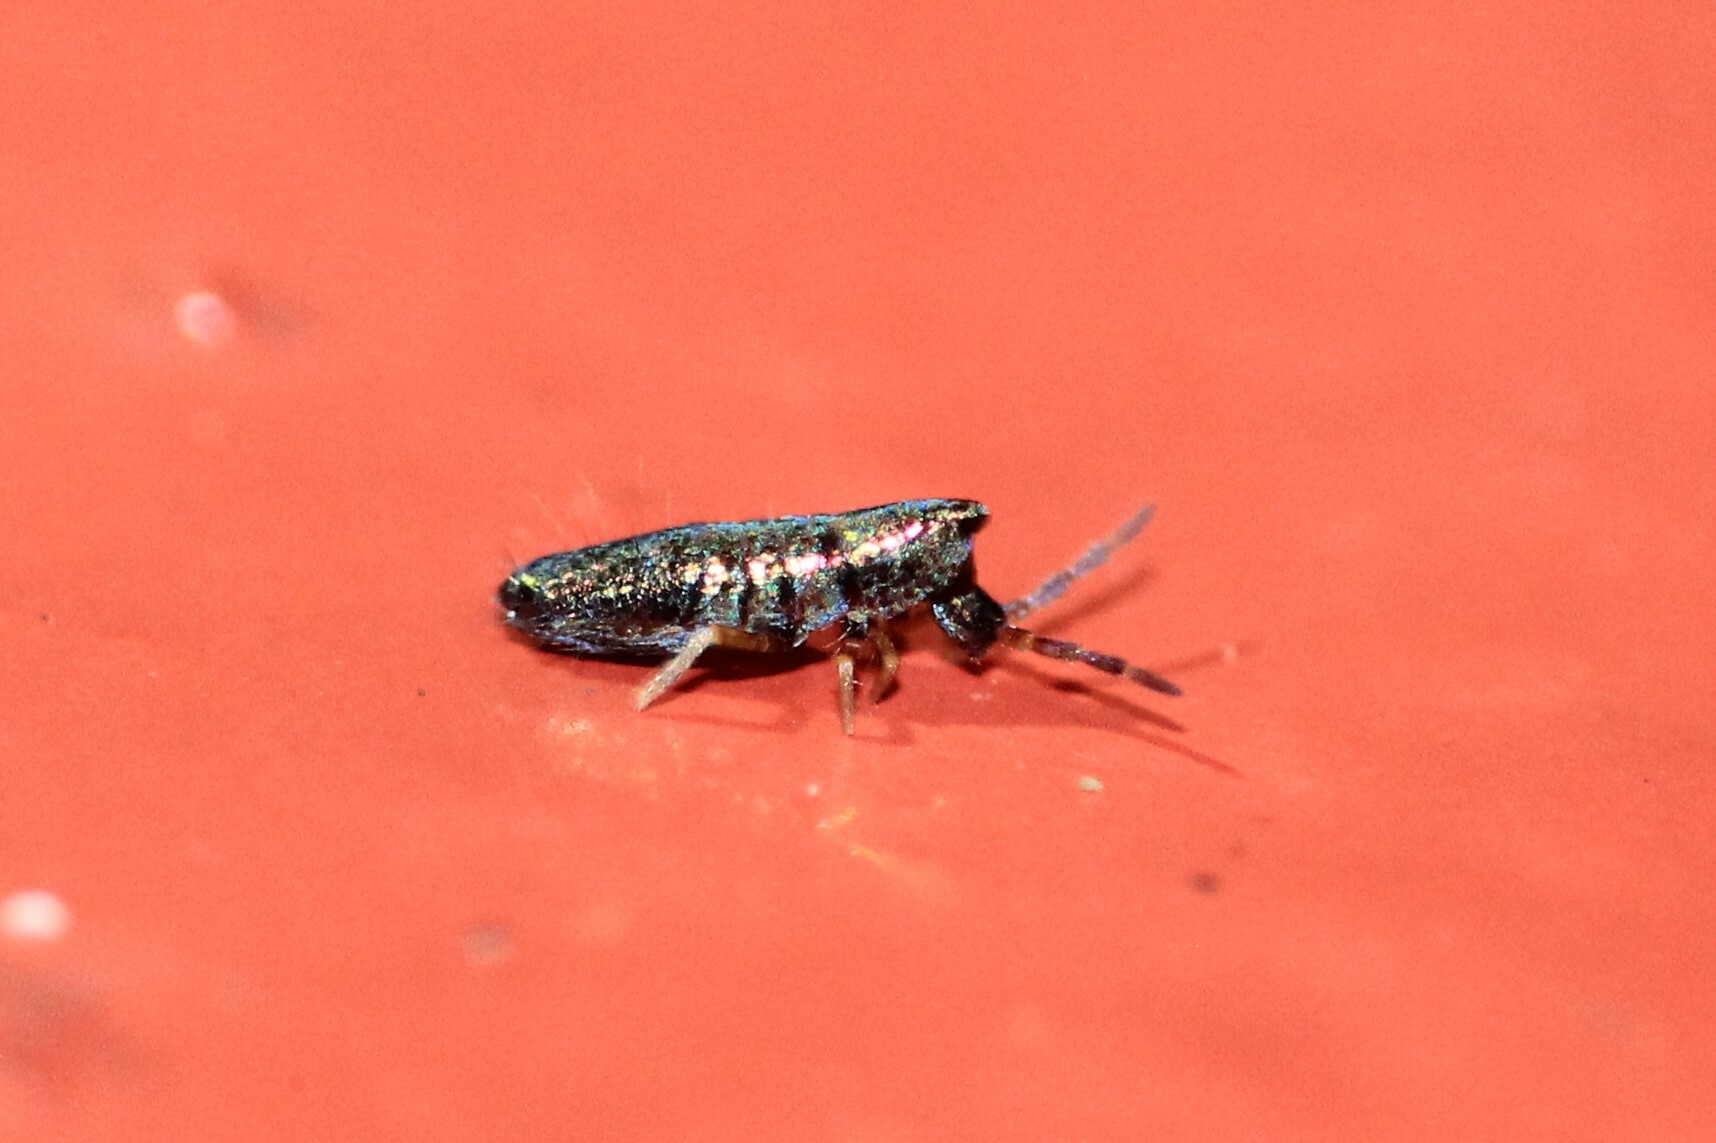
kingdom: Animalia
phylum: Arthropoda
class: Collembola
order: Entomobryomorpha
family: Entomobryidae
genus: Lepidocyrtus
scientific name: Lepidocyrtus paradoxus
